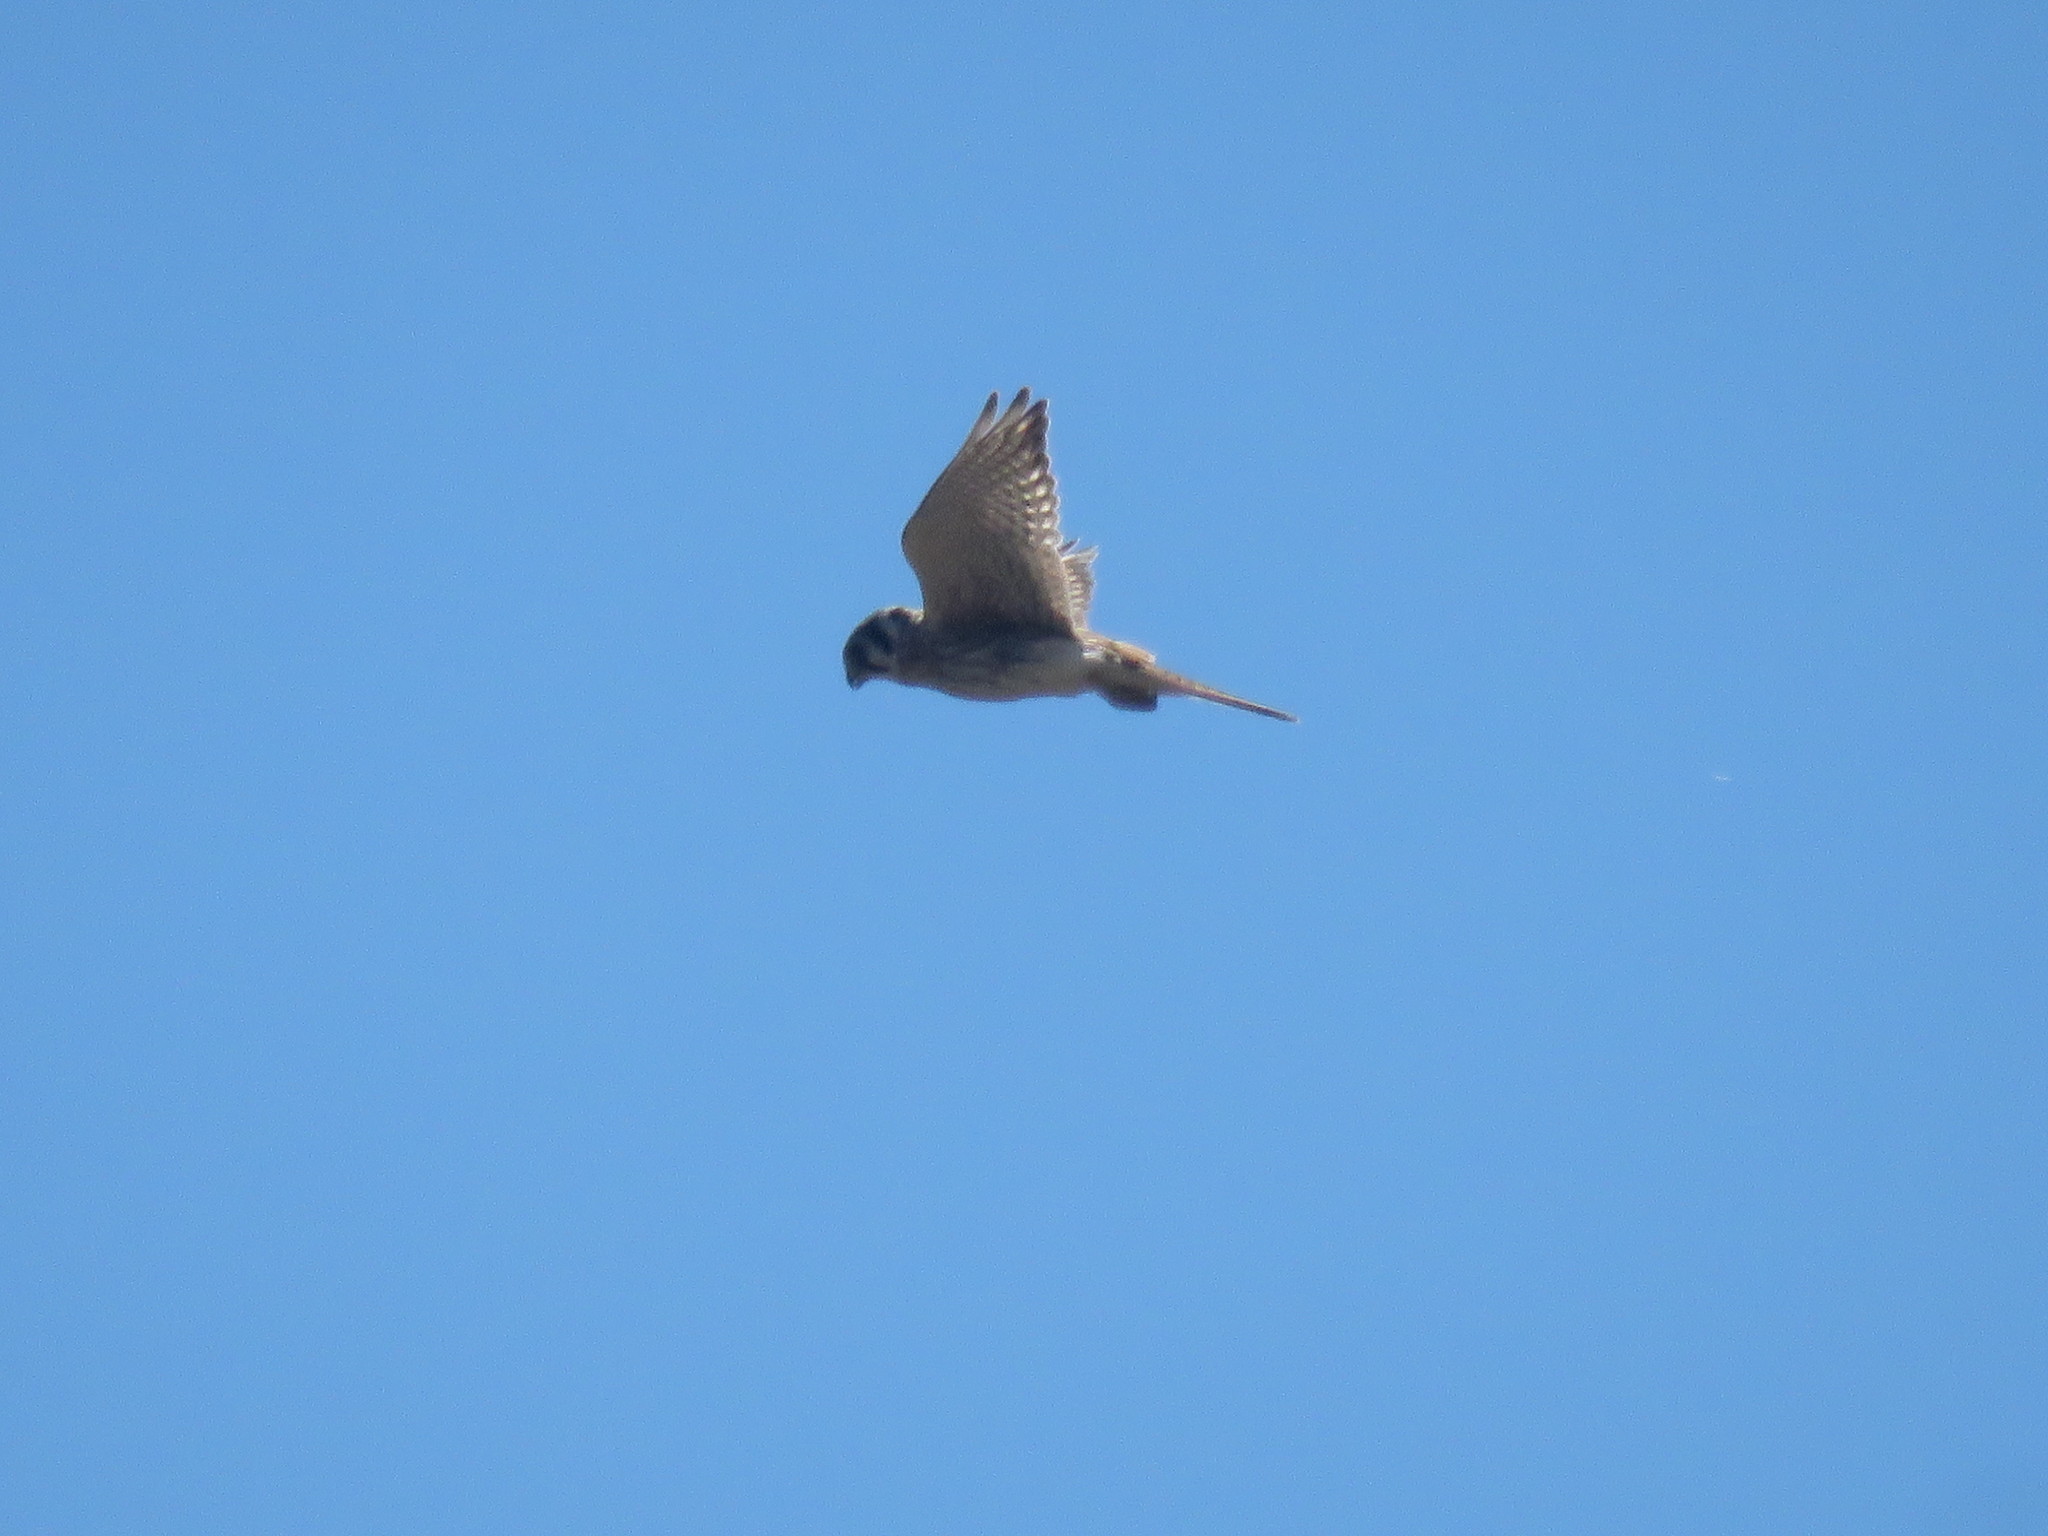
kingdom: Animalia
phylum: Chordata
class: Aves
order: Falconiformes
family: Falconidae
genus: Falco
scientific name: Falco sparverius
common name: American kestrel
